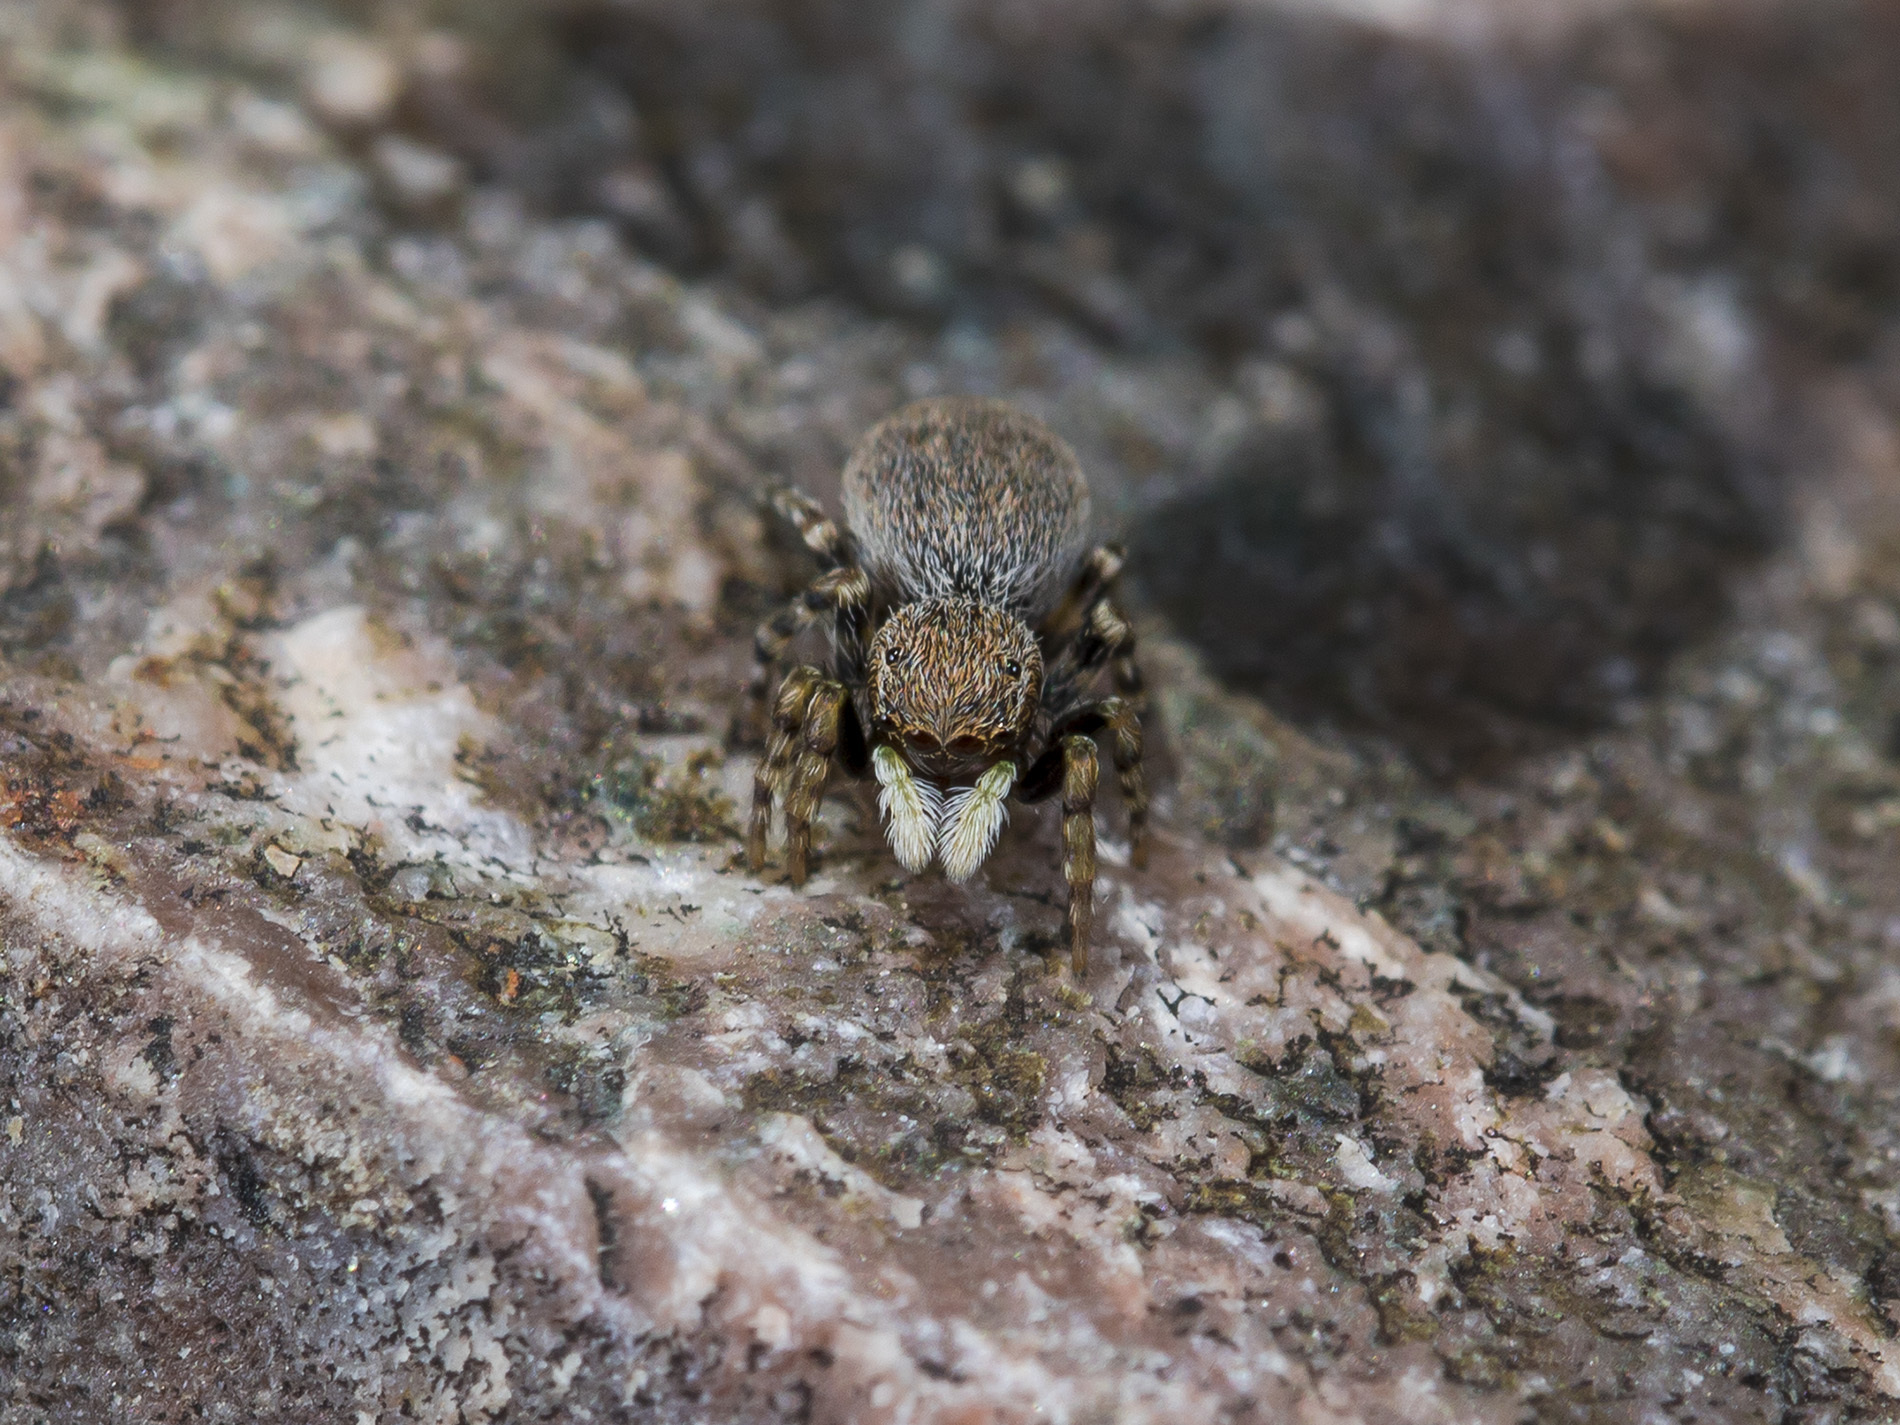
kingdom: Animalia
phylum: Arthropoda
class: Arachnida
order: Araneae
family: Salticidae
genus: Talavera
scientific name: Talavera petrensis
